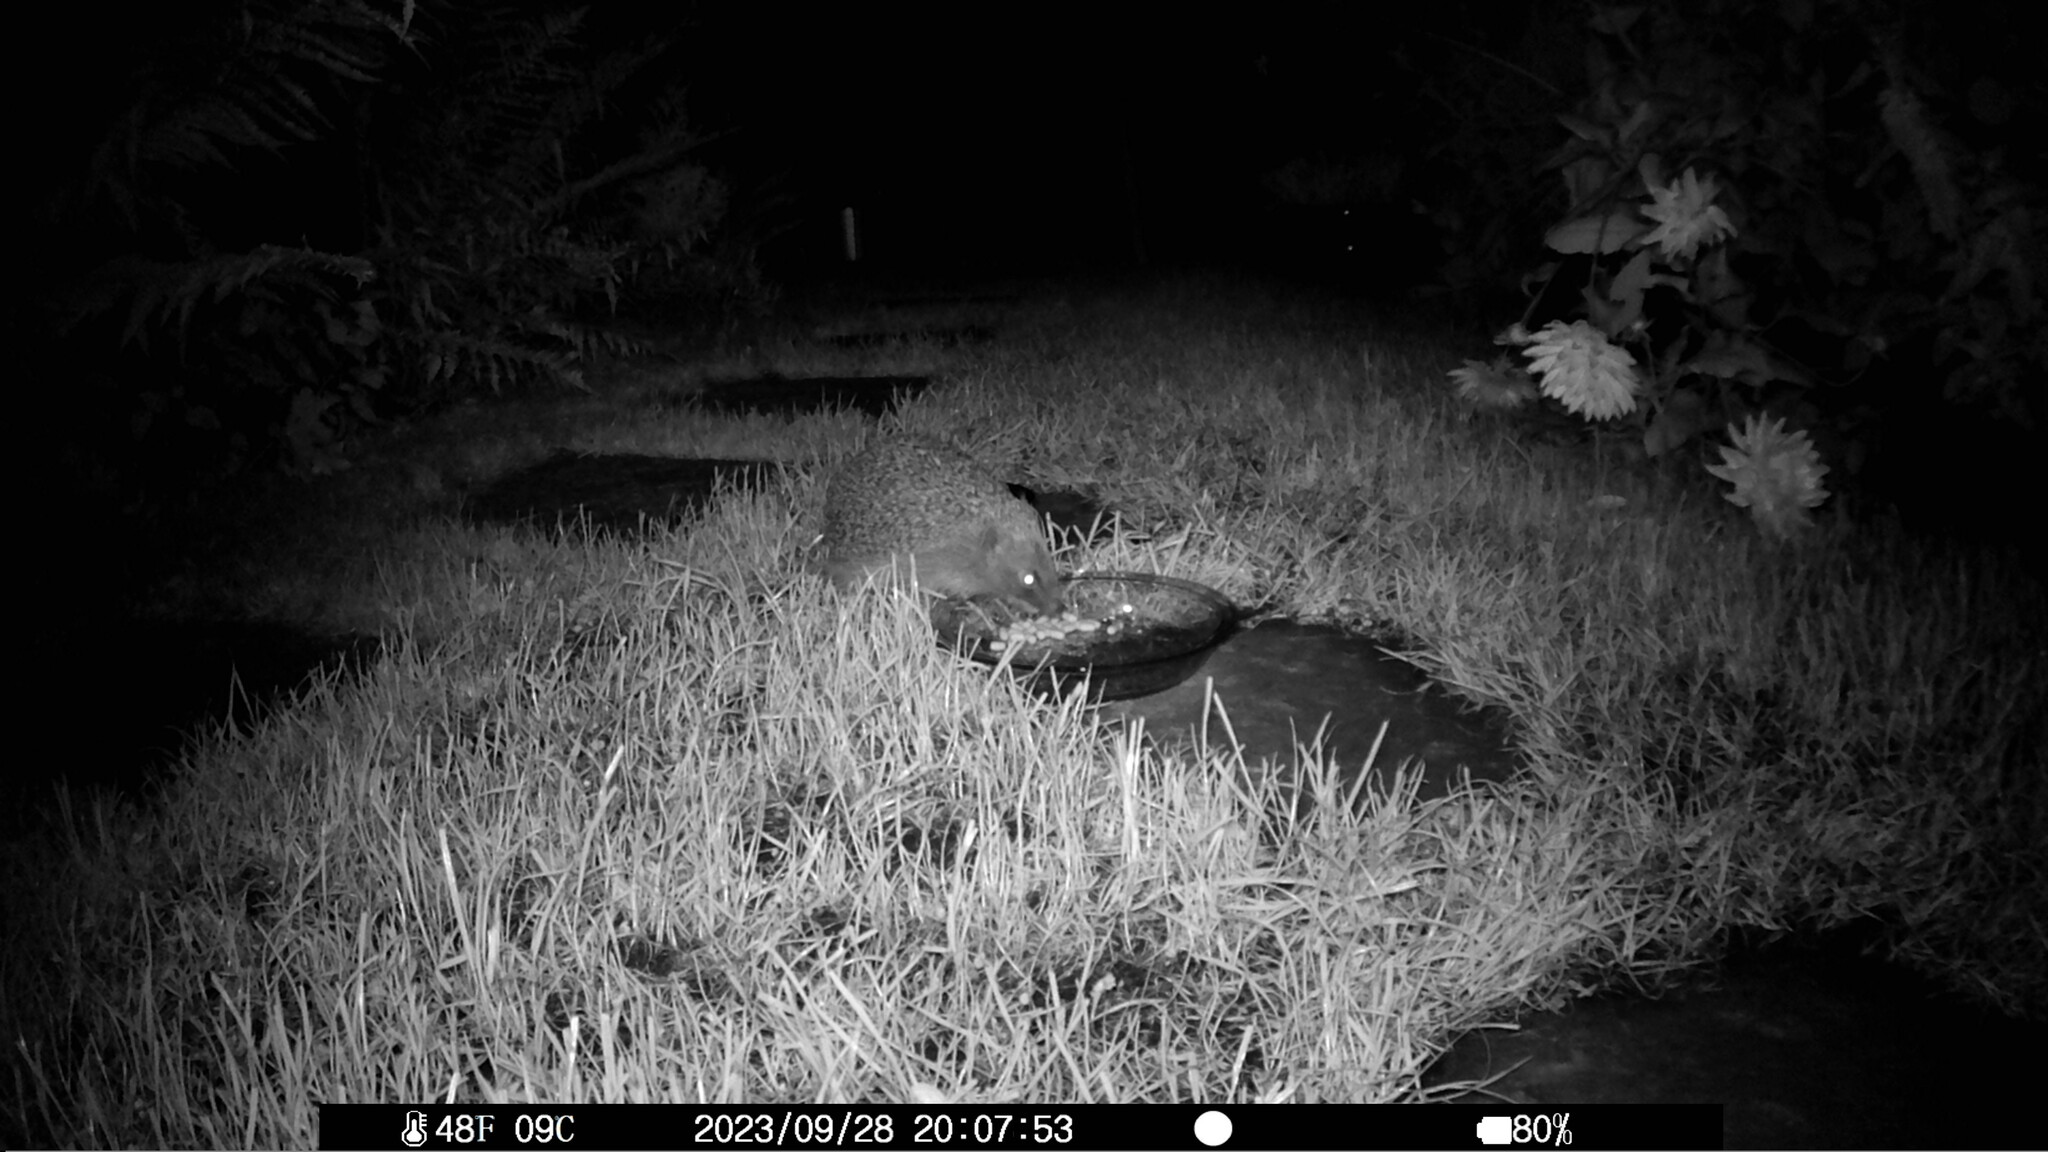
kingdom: Animalia
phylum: Chordata
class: Mammalia
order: Erinaceomorpha
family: Erinaceidae
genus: Erinaceus
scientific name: Erinaceus europaeus
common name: West european hedgehog
